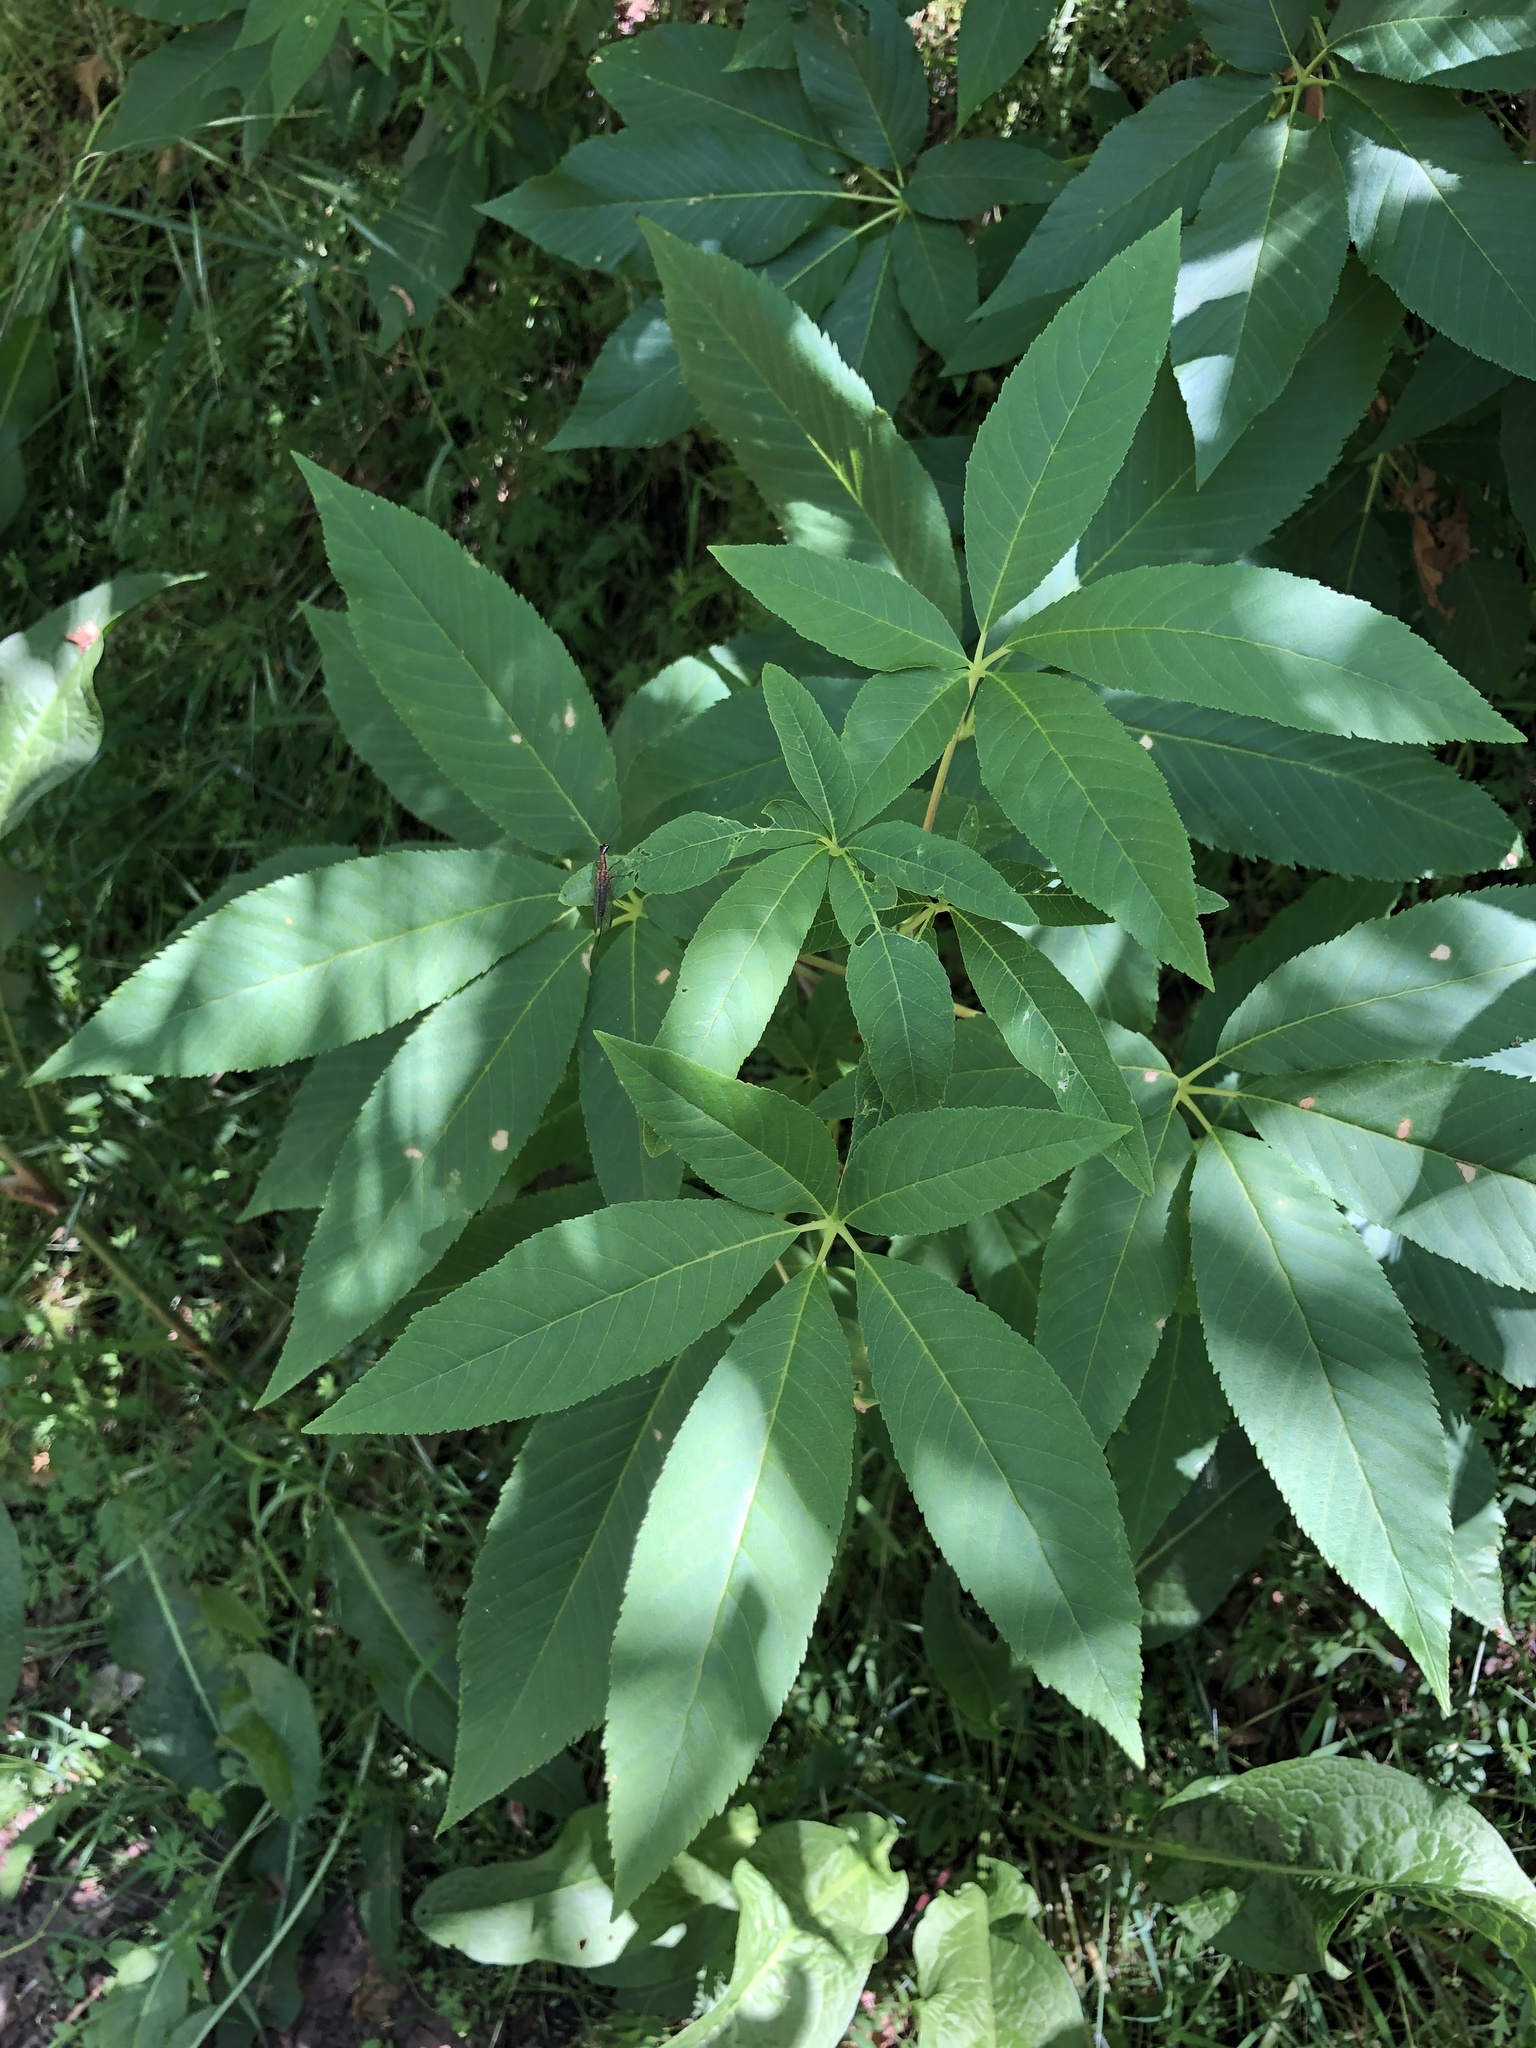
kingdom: Plantae
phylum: Tracheophyta
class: Magnoliopsida
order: Sapindales
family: Sapindaceae
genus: Aesculus
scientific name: Aesculus californica
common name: California buckeye
